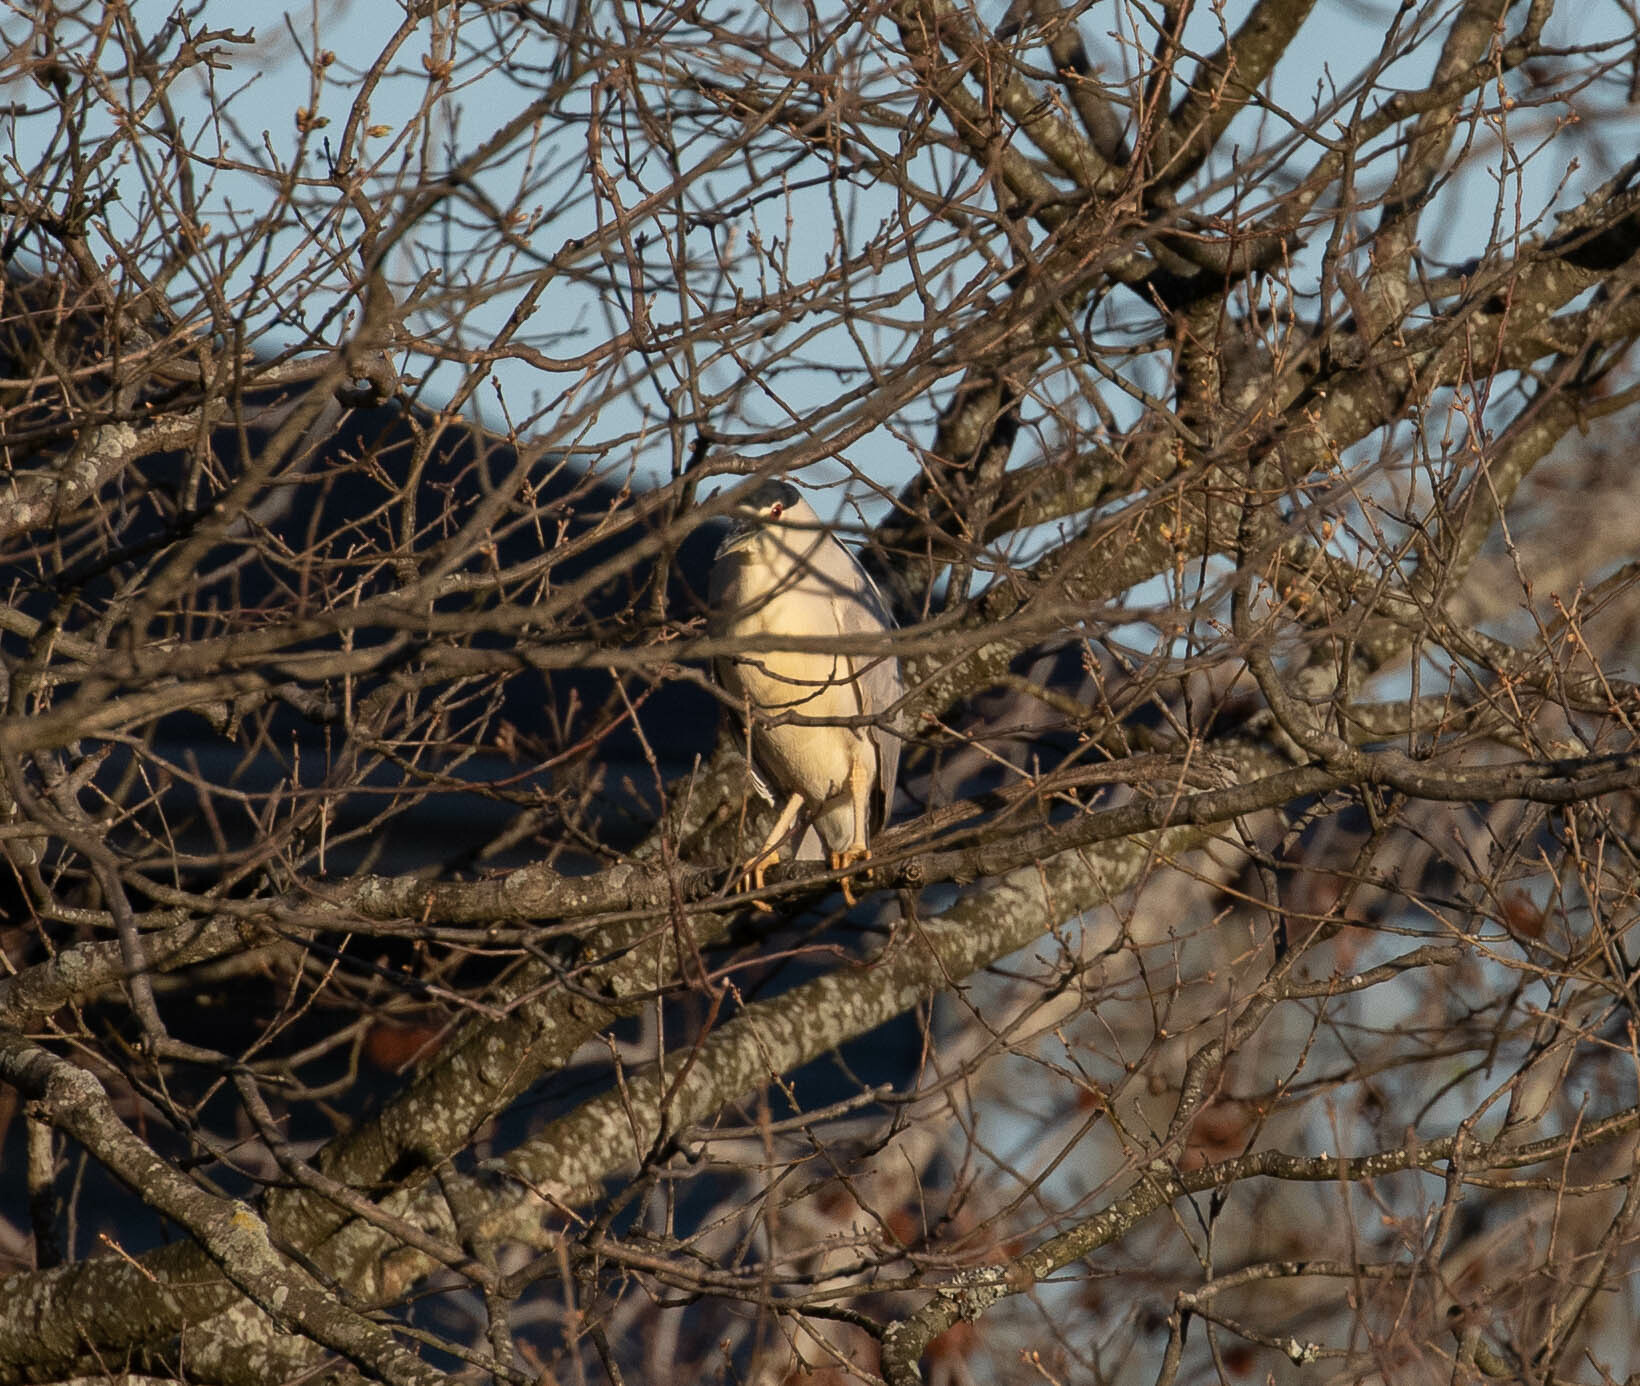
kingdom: Animalia
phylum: Chordata
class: Aves
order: Pelecaniformes
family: Ardeidae
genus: Nycticorax
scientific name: Nycticorax nycticorax
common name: Black-crowned night heron
